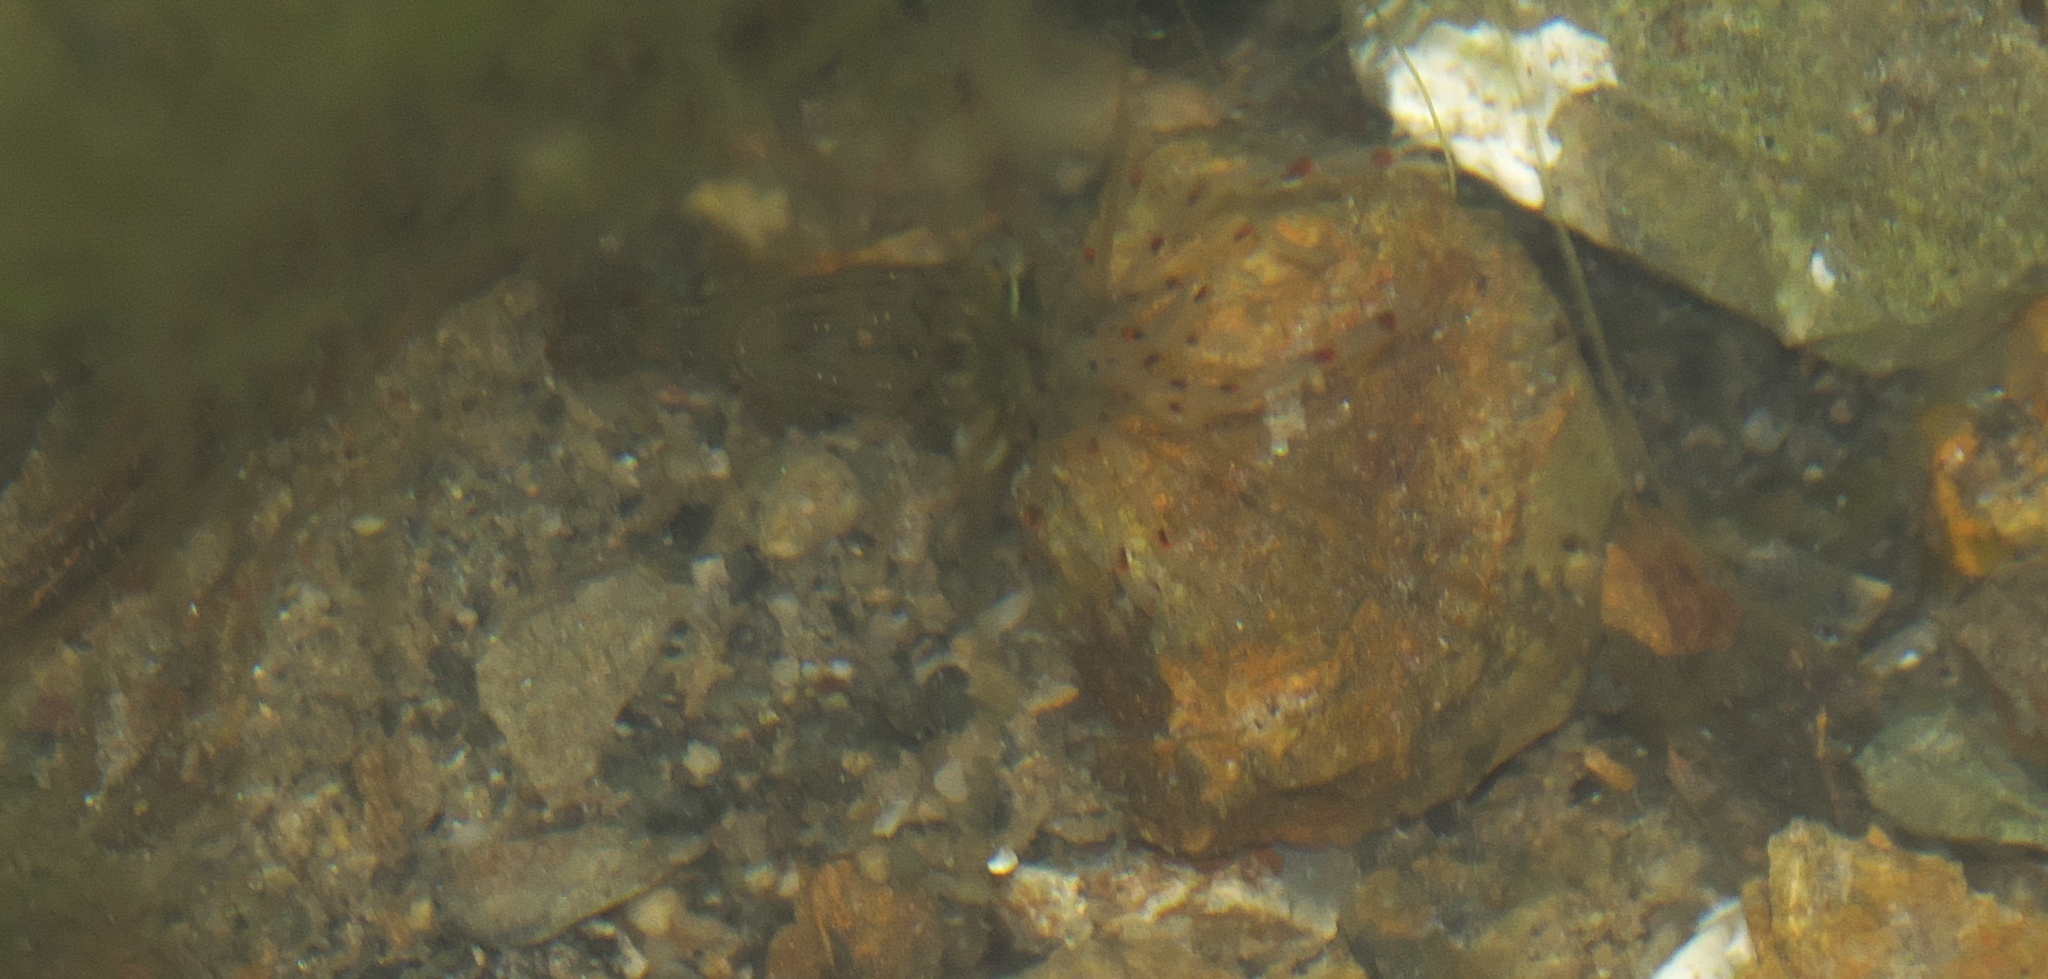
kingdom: Animalia
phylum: Arthropoda
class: Malacostraca
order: Decapoda
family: Palaemonidae
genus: Palaemon
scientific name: Palaemon affinis
